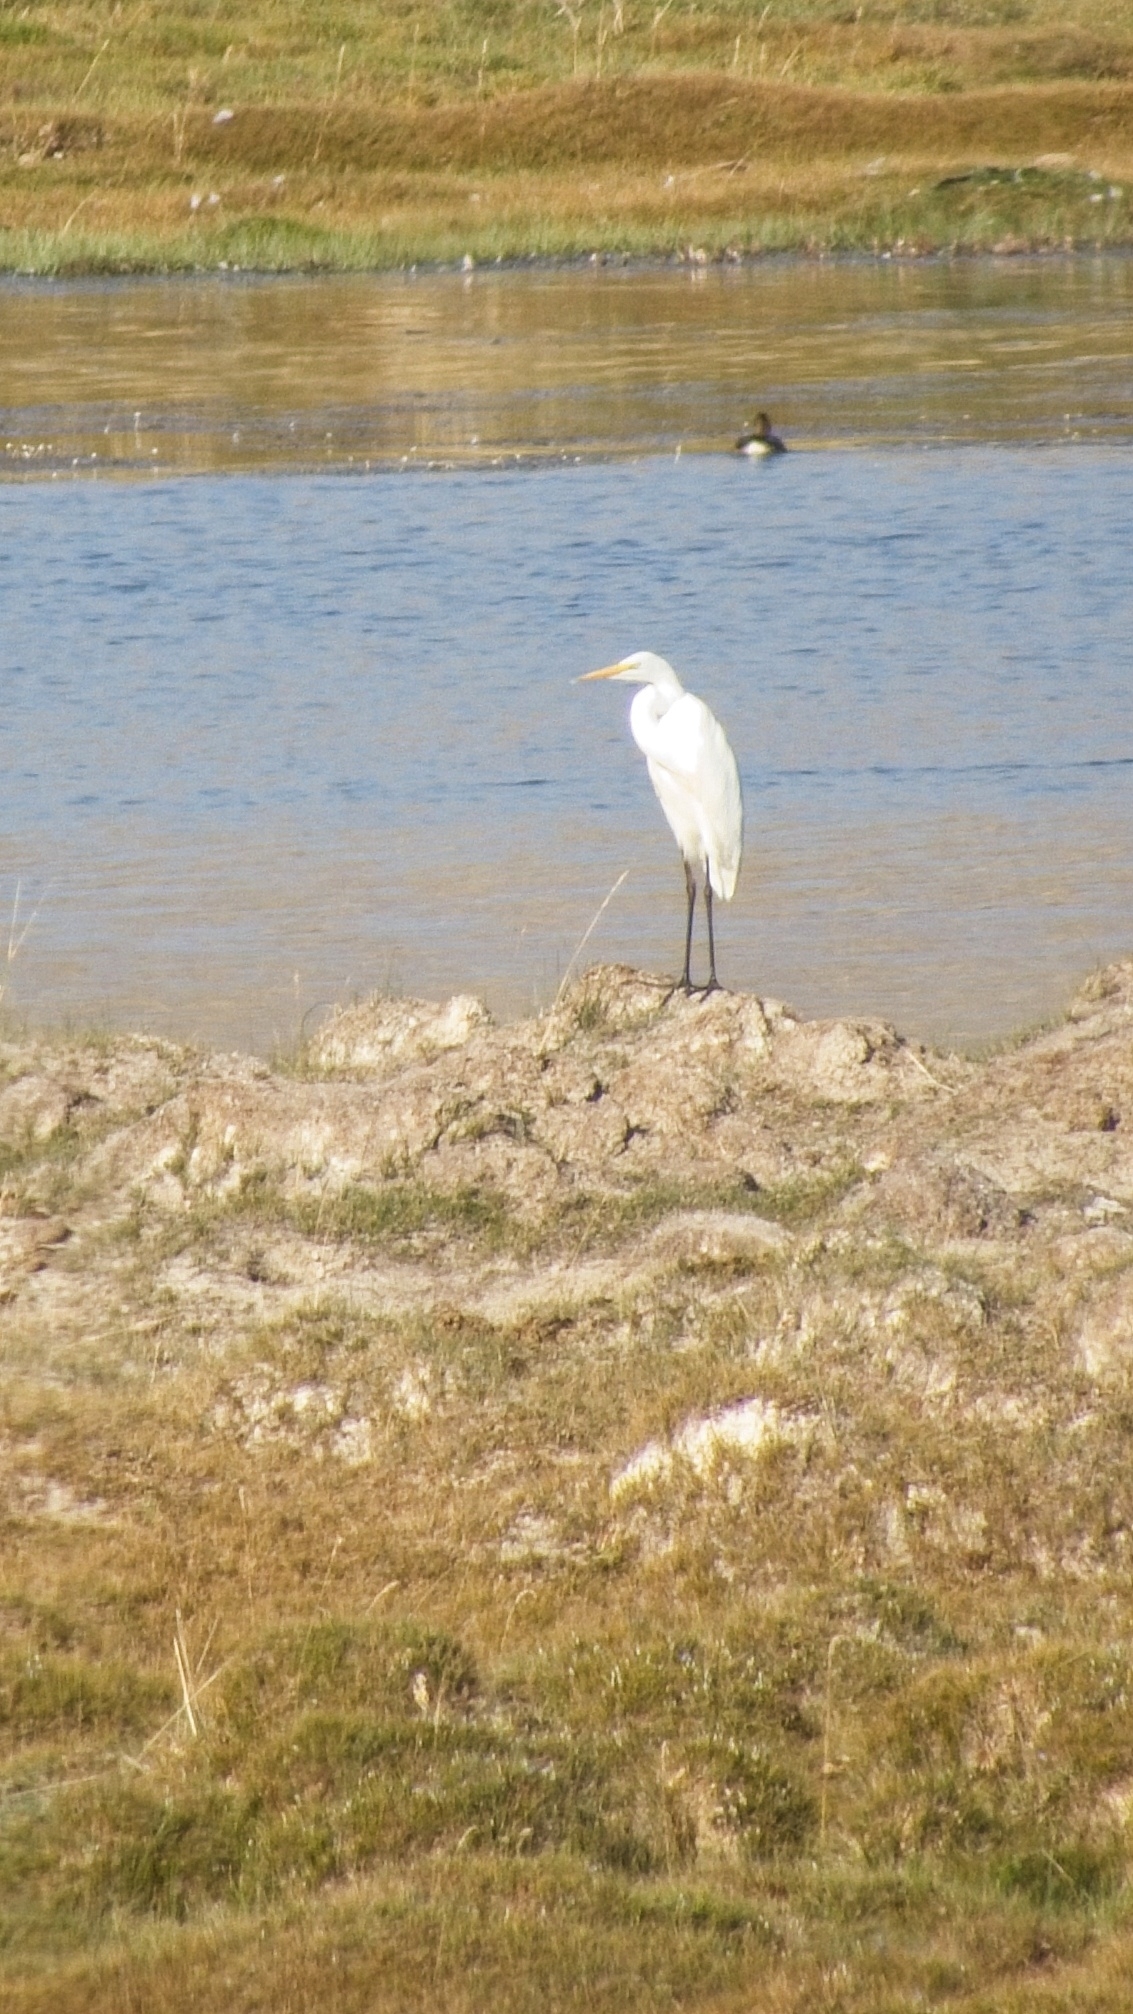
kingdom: Animalia
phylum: Chordata
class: Aves
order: Pelecaniformes
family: Ardeidae
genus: Ardea
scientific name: Ardea alba
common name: Great egret
